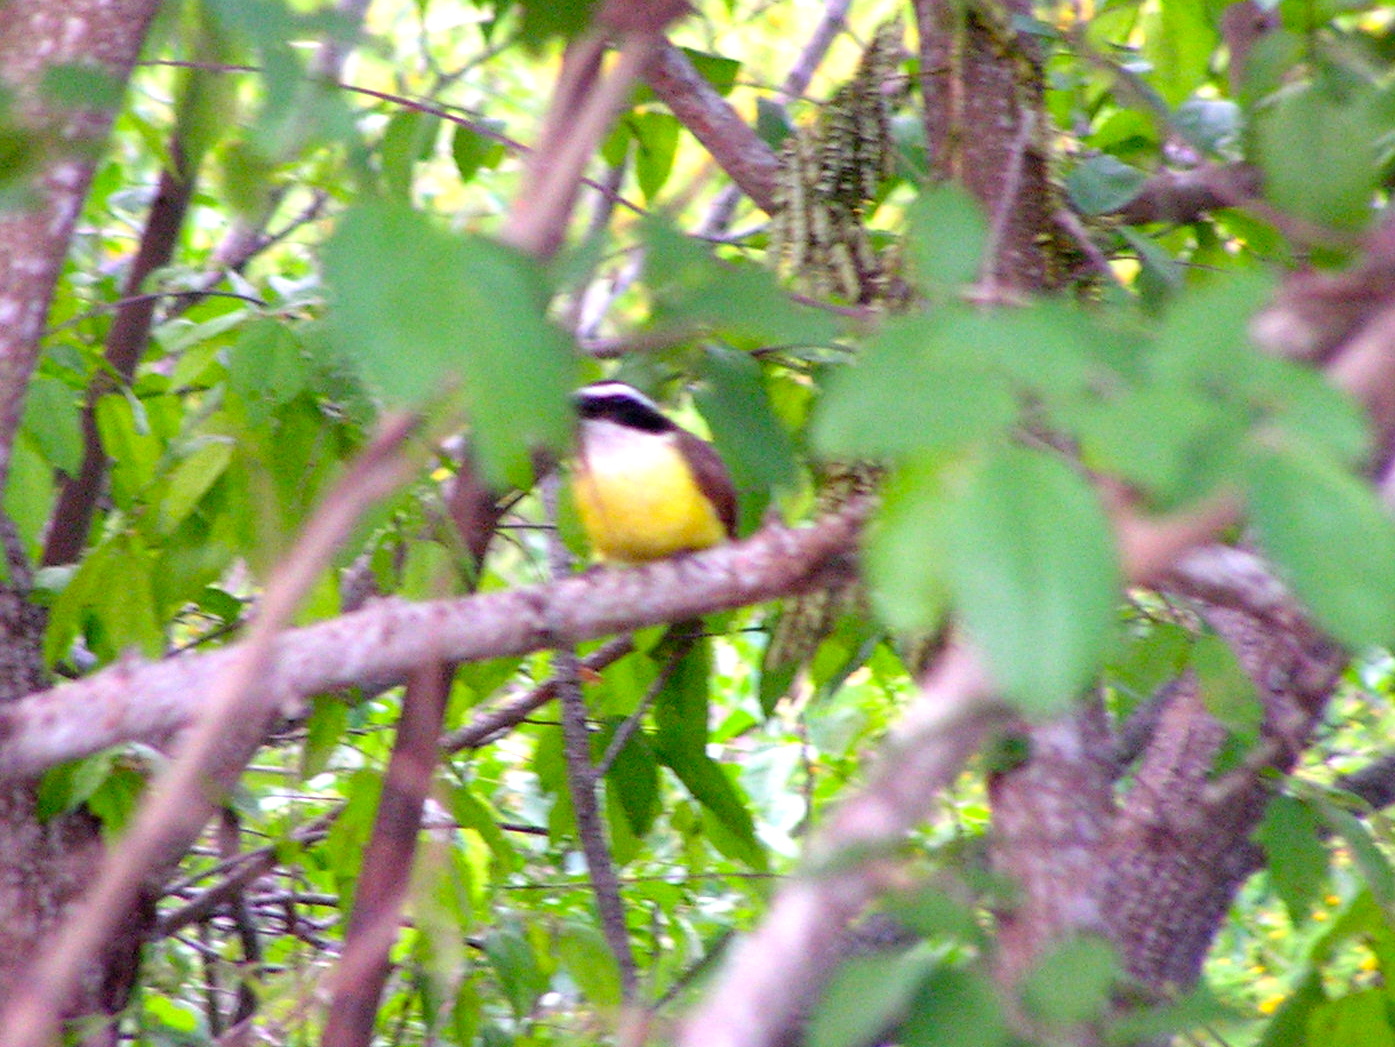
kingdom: Animalia
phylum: Chordata
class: Aves
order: Passeriformes
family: Tyrannidae
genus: Pitangus
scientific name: Pitangus sulphuratus
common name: Great kiskadee
